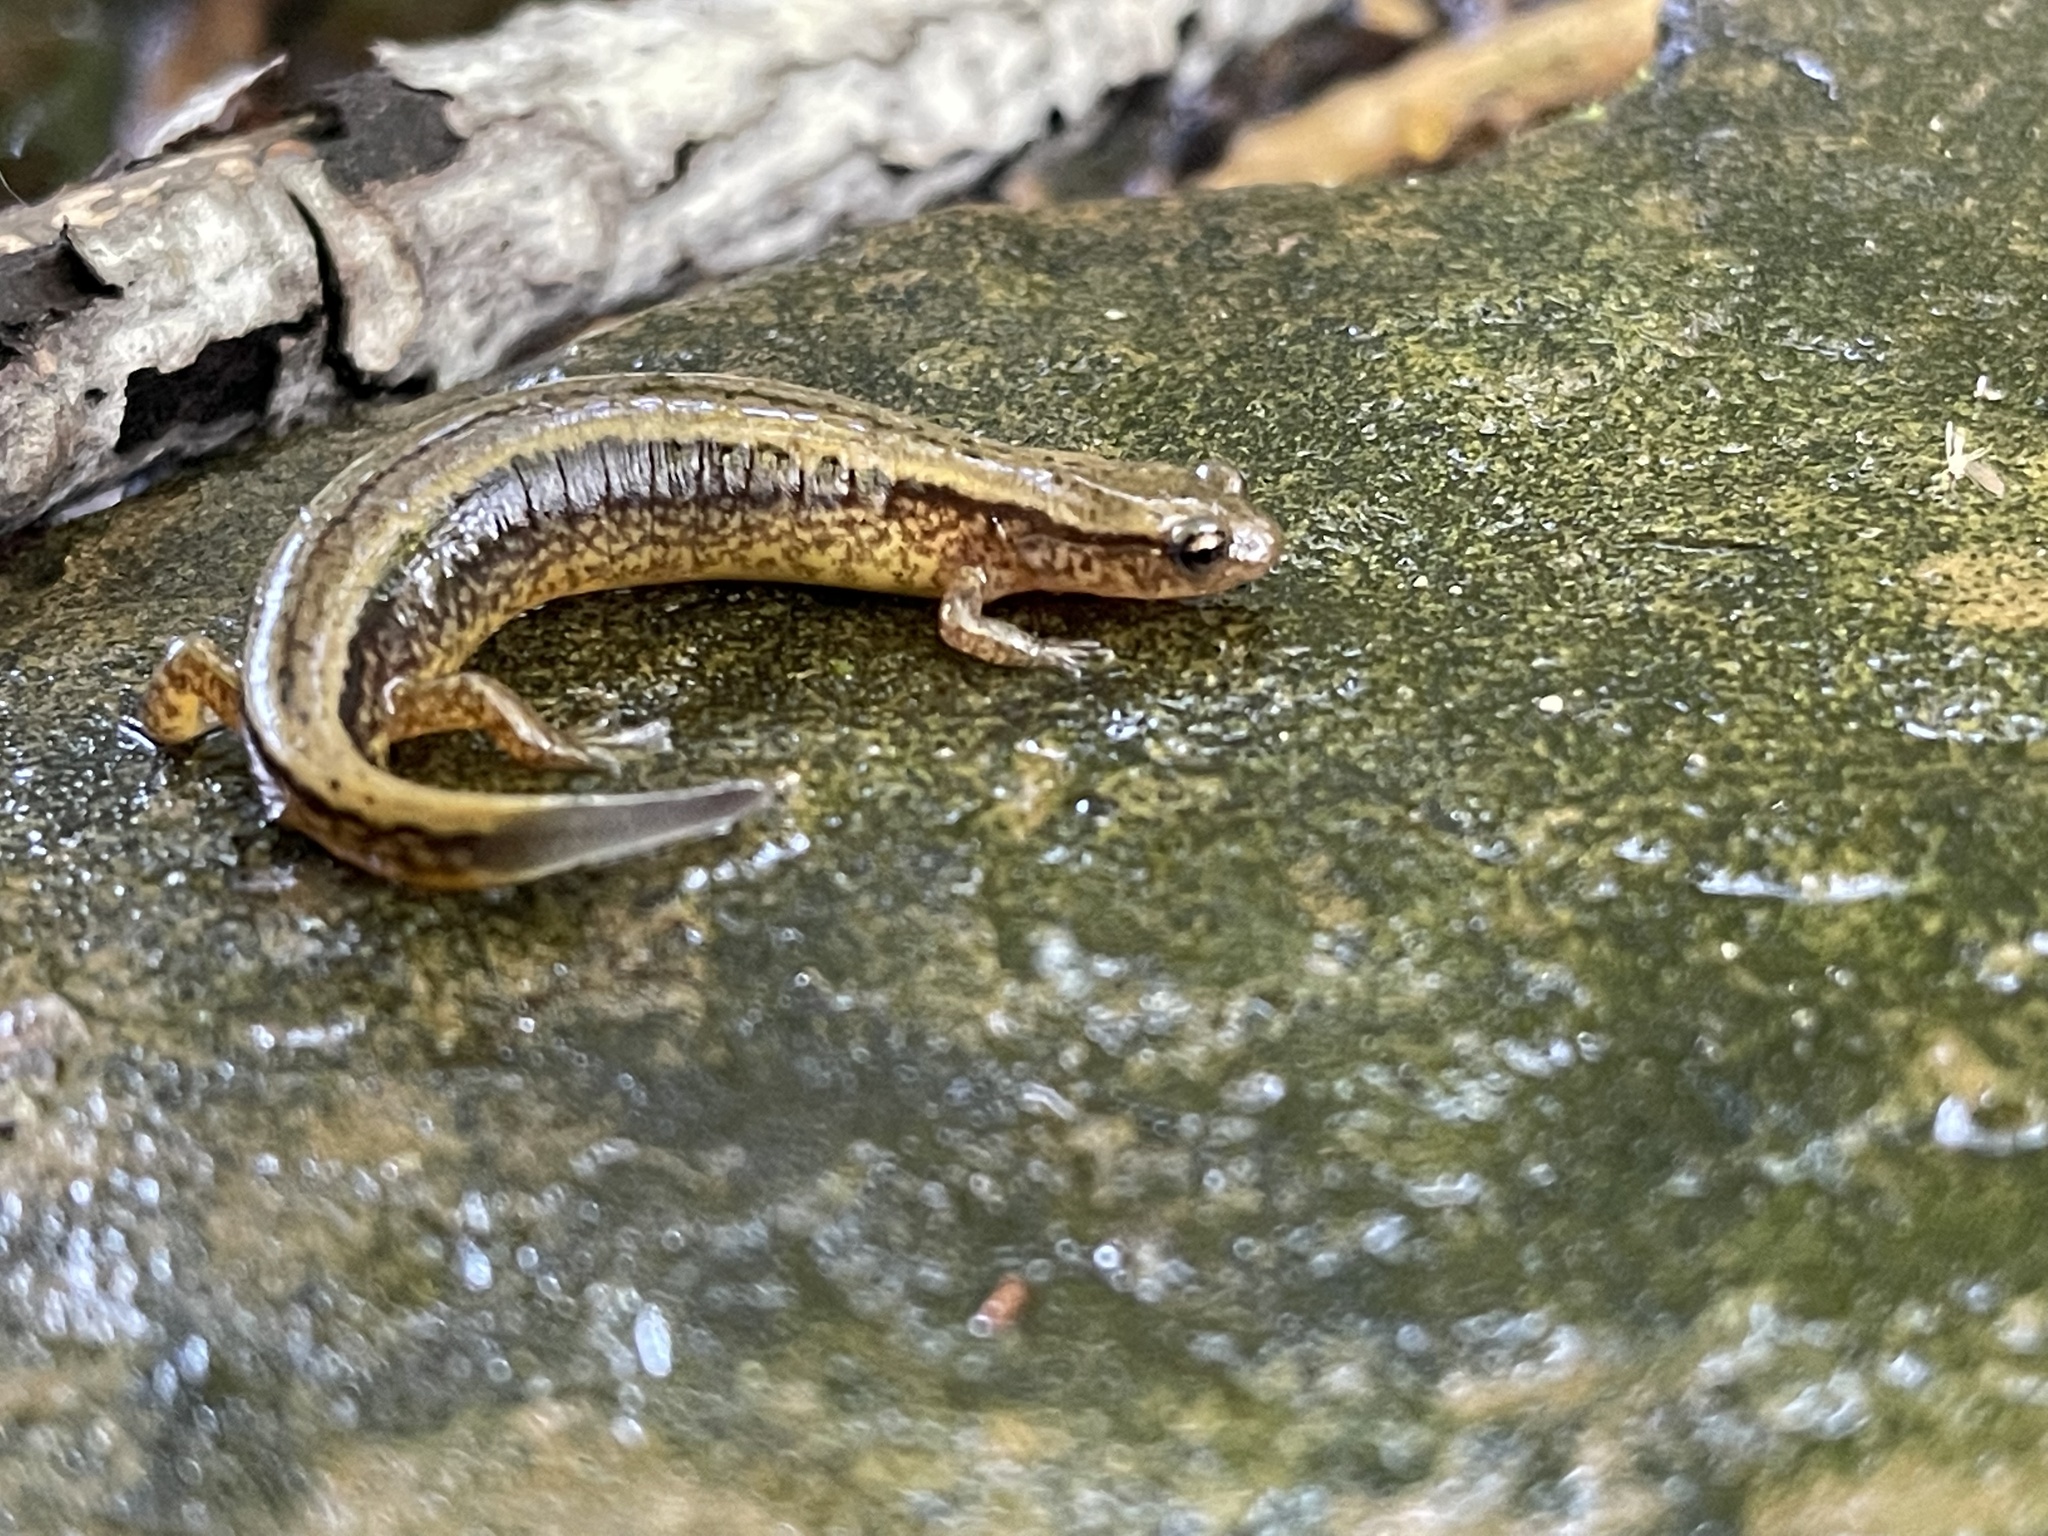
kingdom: Animalia
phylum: Chordata
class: Amphibia
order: Caudata
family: Plethodontidae
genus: Eurycea
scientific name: Eurycea bislineata
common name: Northern two-lined salamander
